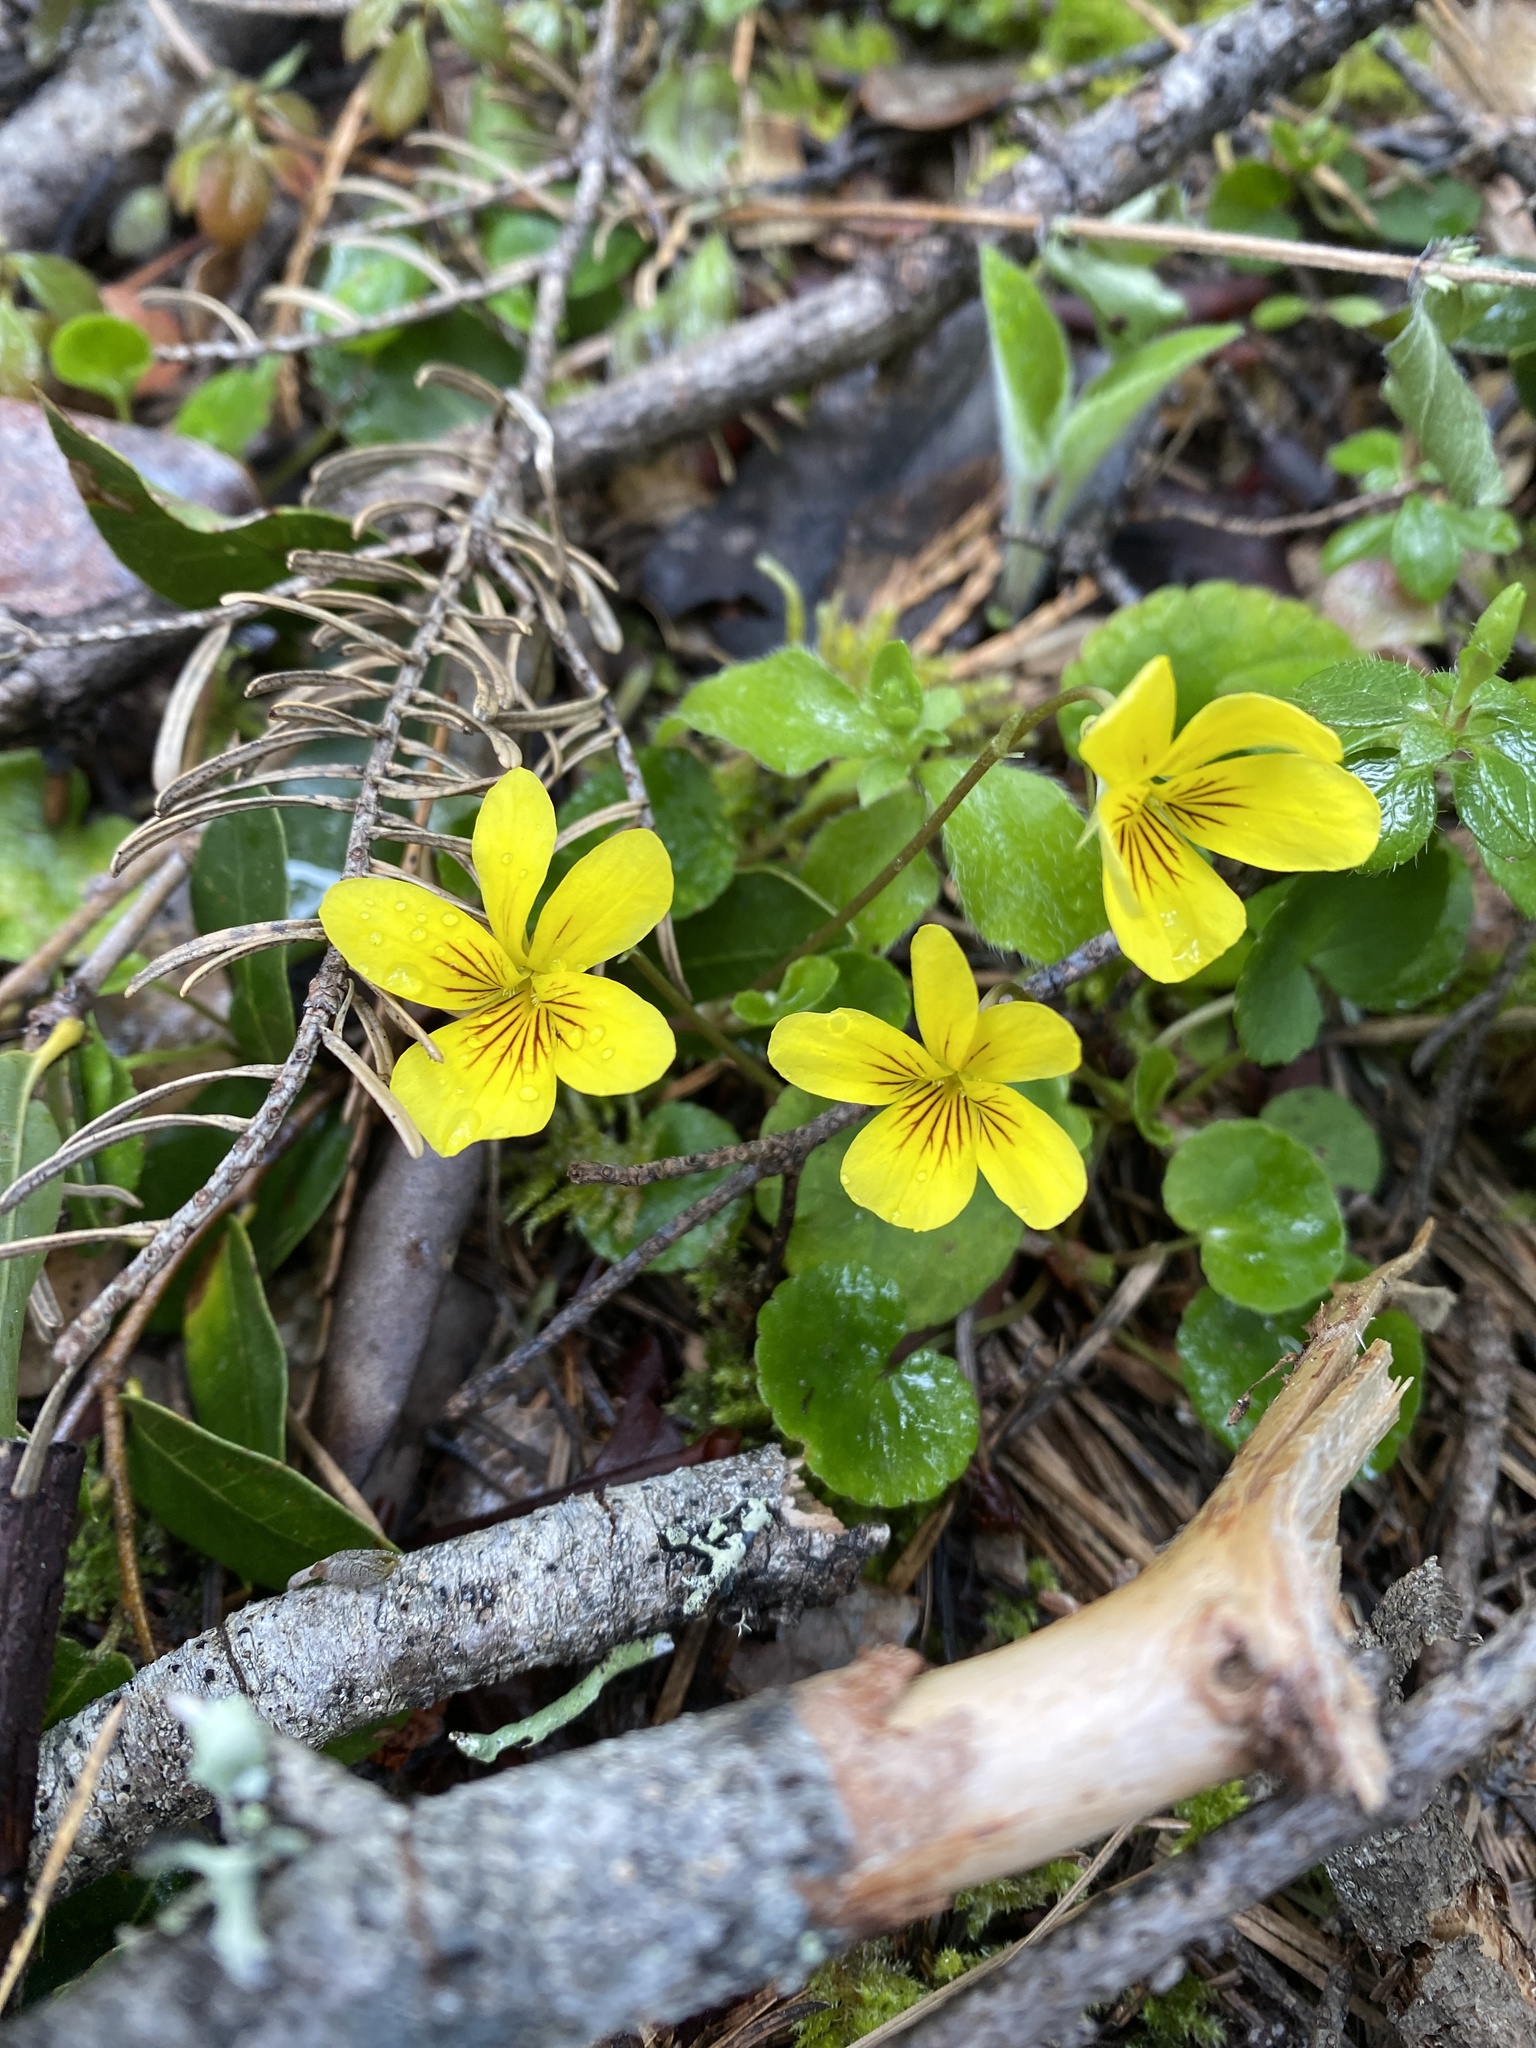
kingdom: Plantae
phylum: Tracheophyta
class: Magnoliopsida
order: Malpighiales
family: Violaceae
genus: Viola
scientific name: Viola sempervirens
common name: Evergreen violet
